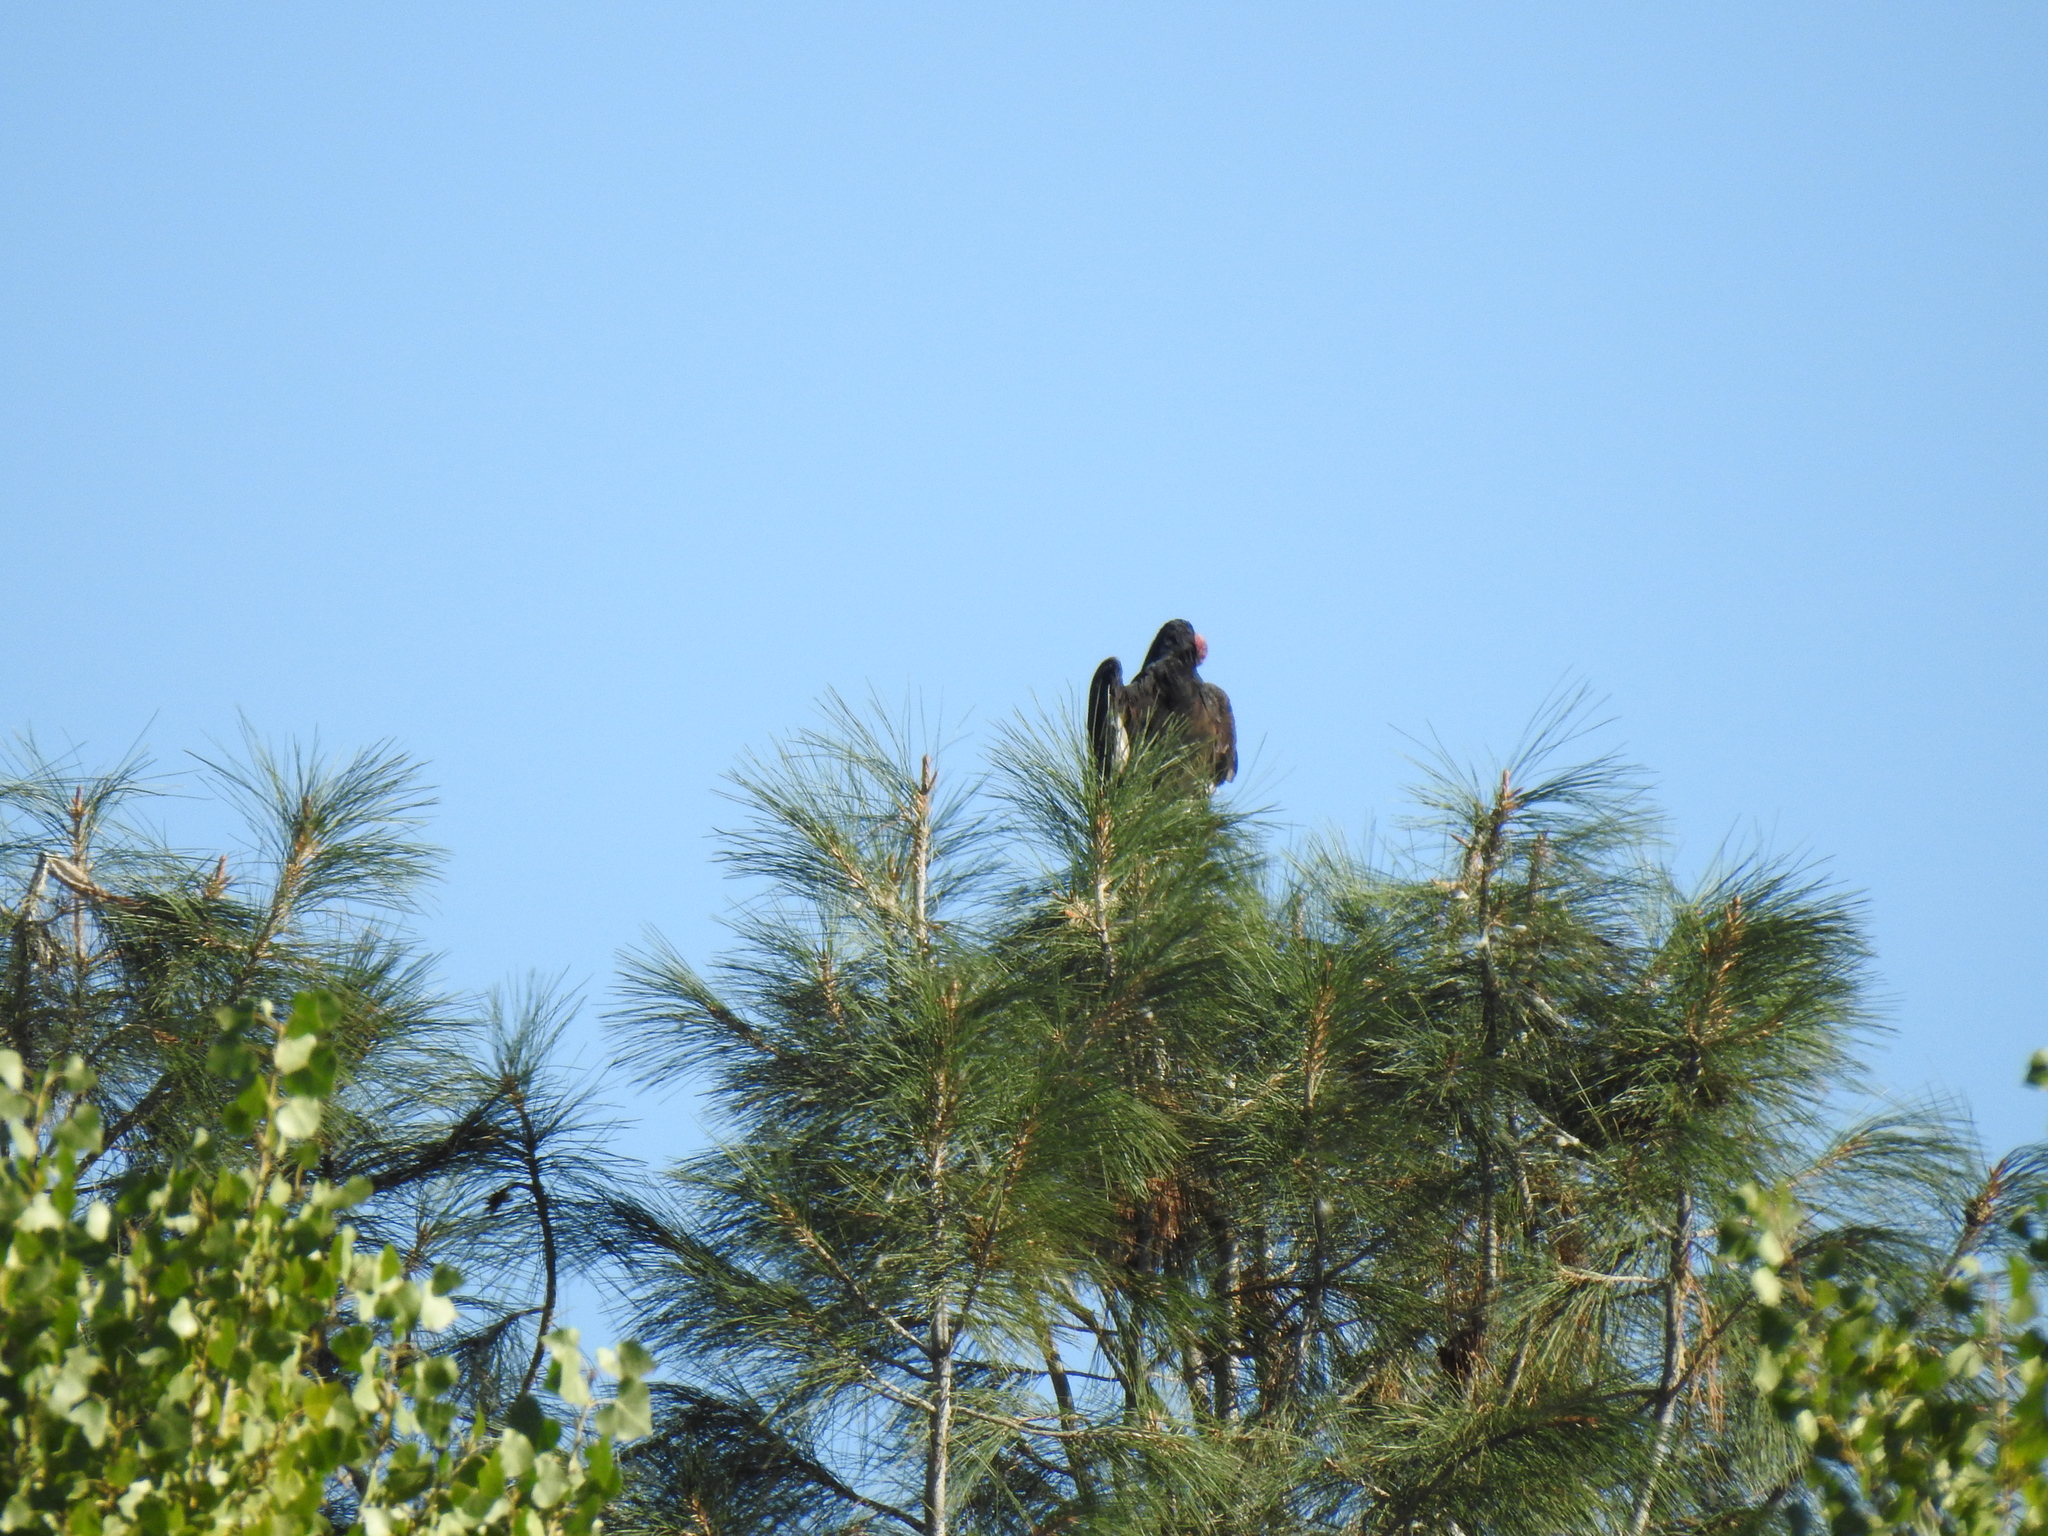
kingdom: Animalia
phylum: Chordata
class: Aves
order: Accipitriformes
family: Cathartidae
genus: Cathartes
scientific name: Cathartes aura
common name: Turkey vulture
